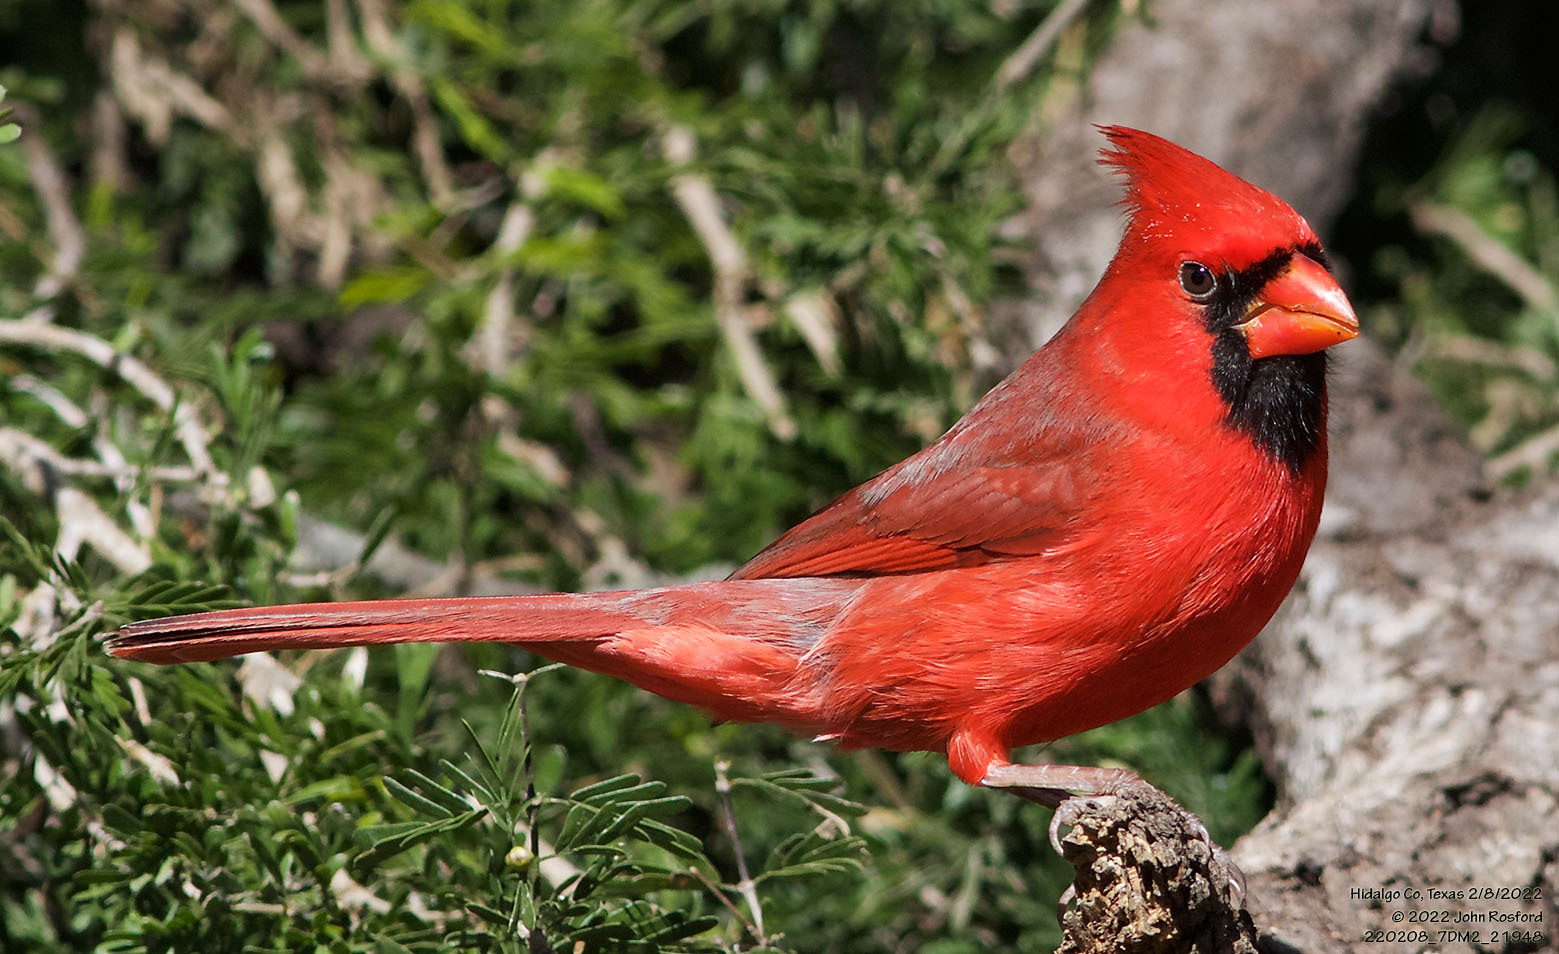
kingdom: Animalia
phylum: Chordata
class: Aves
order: Passeriformes
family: Cardinalidae
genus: Cardinalis
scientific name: Cardinalis cardinalis
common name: Northern cardinal
